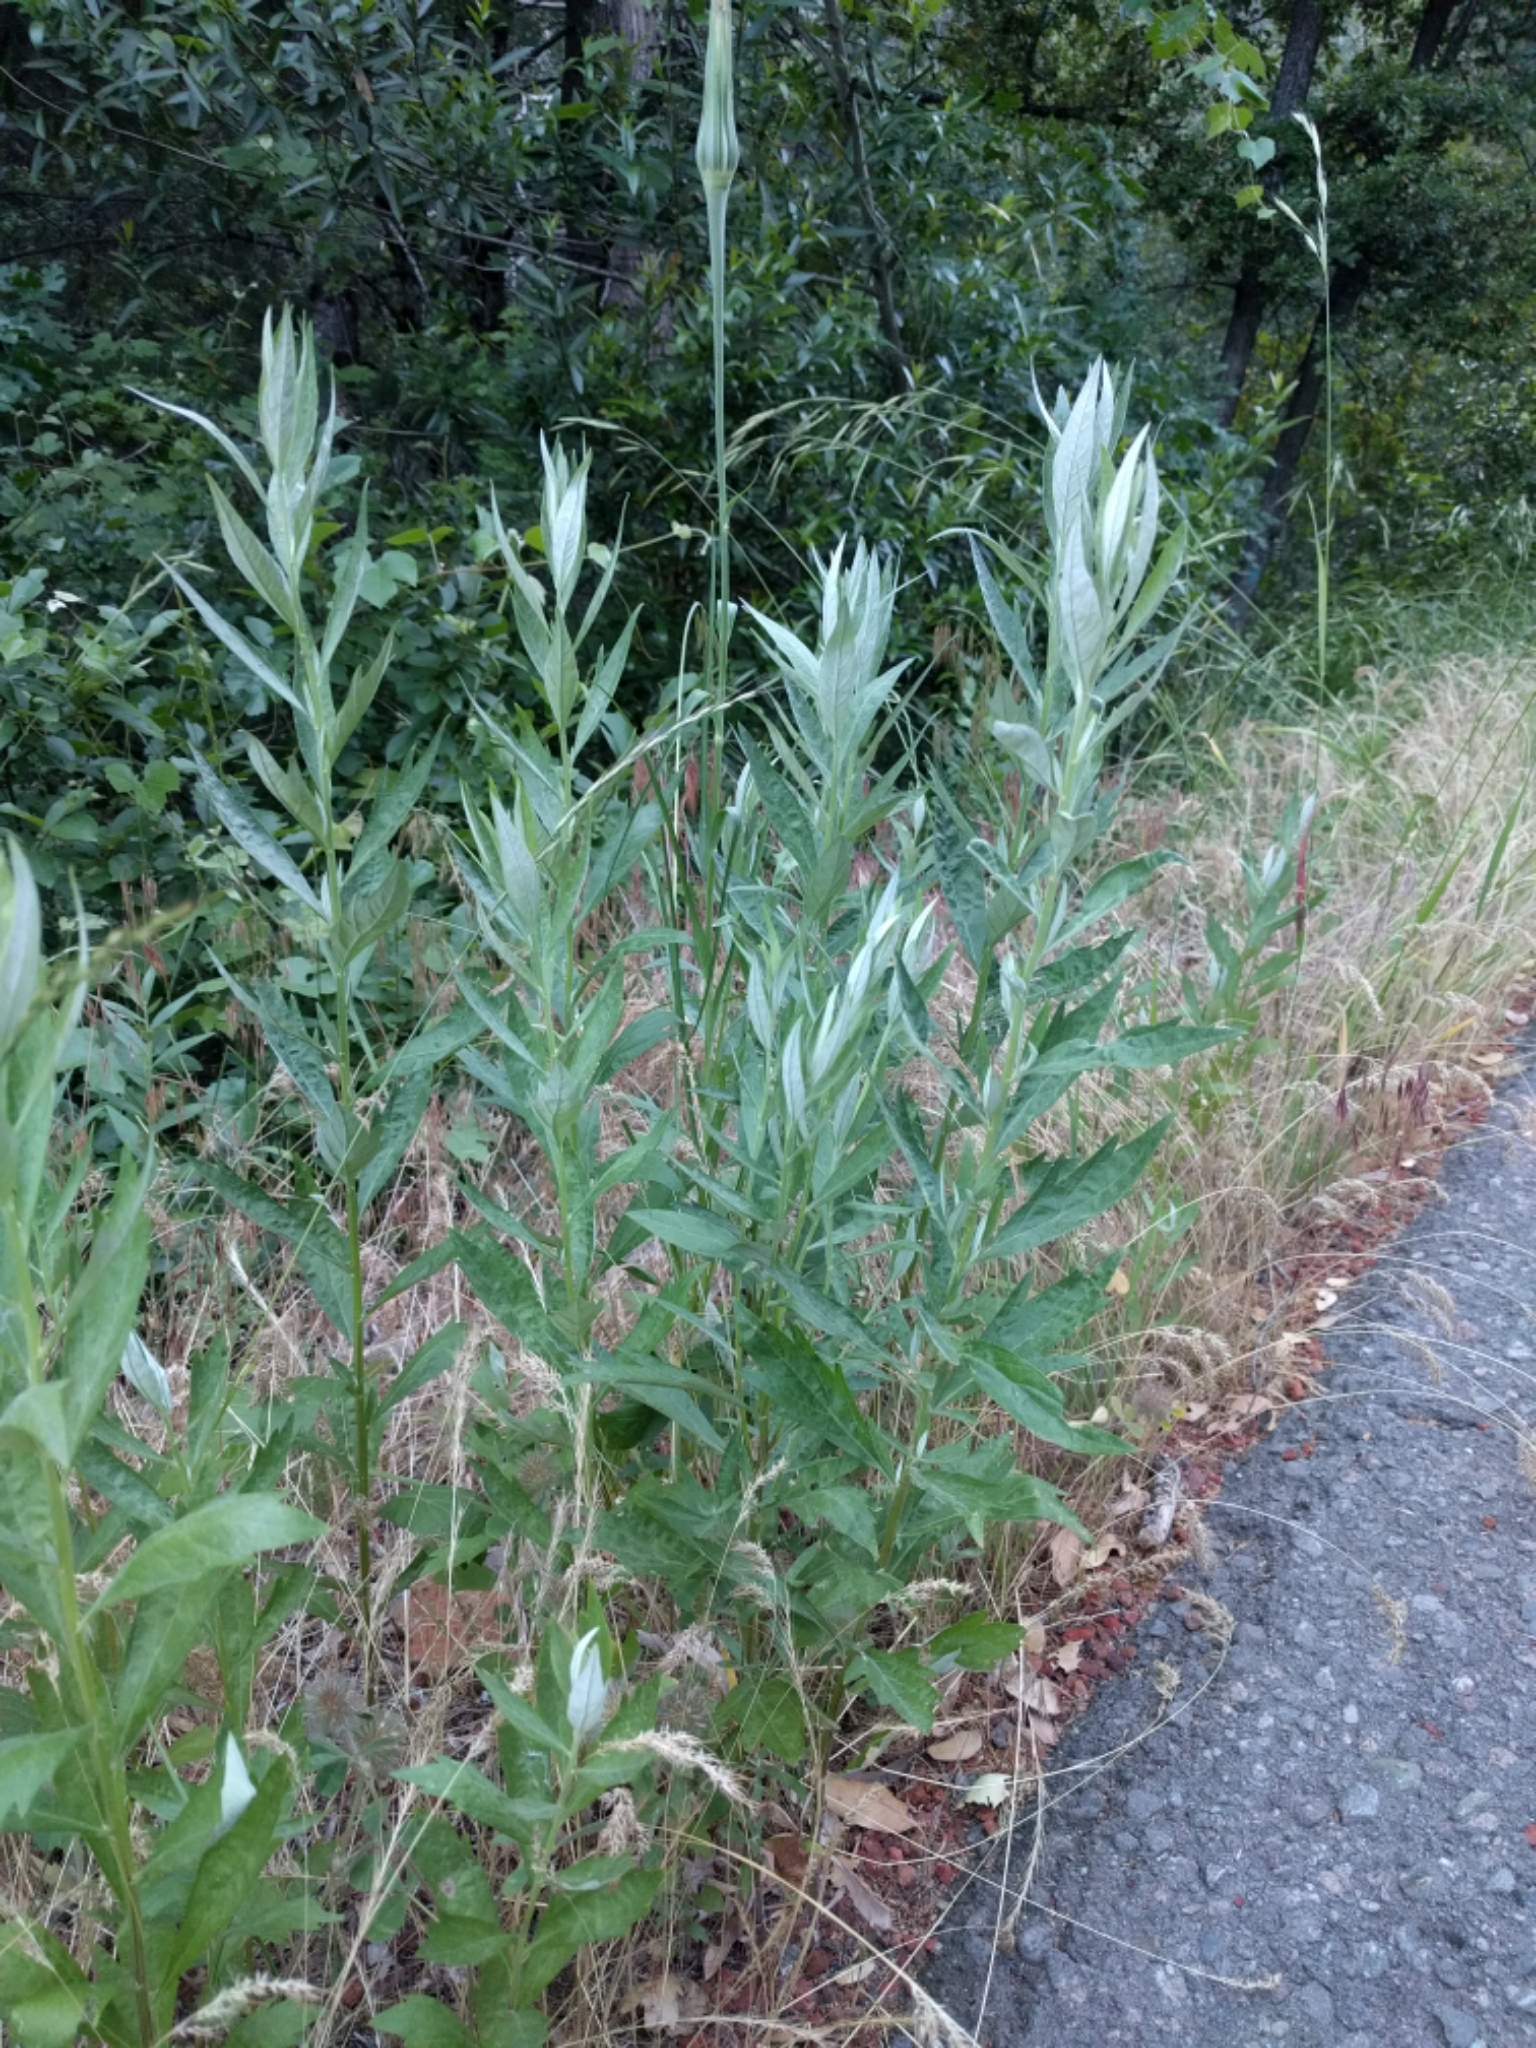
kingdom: Plantae
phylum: Tracheophyta
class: Magnoliopsida
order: Asterales
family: Asteraceae
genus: Artemisia
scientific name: Artemisia douglasiana
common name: Northwest mugwort
